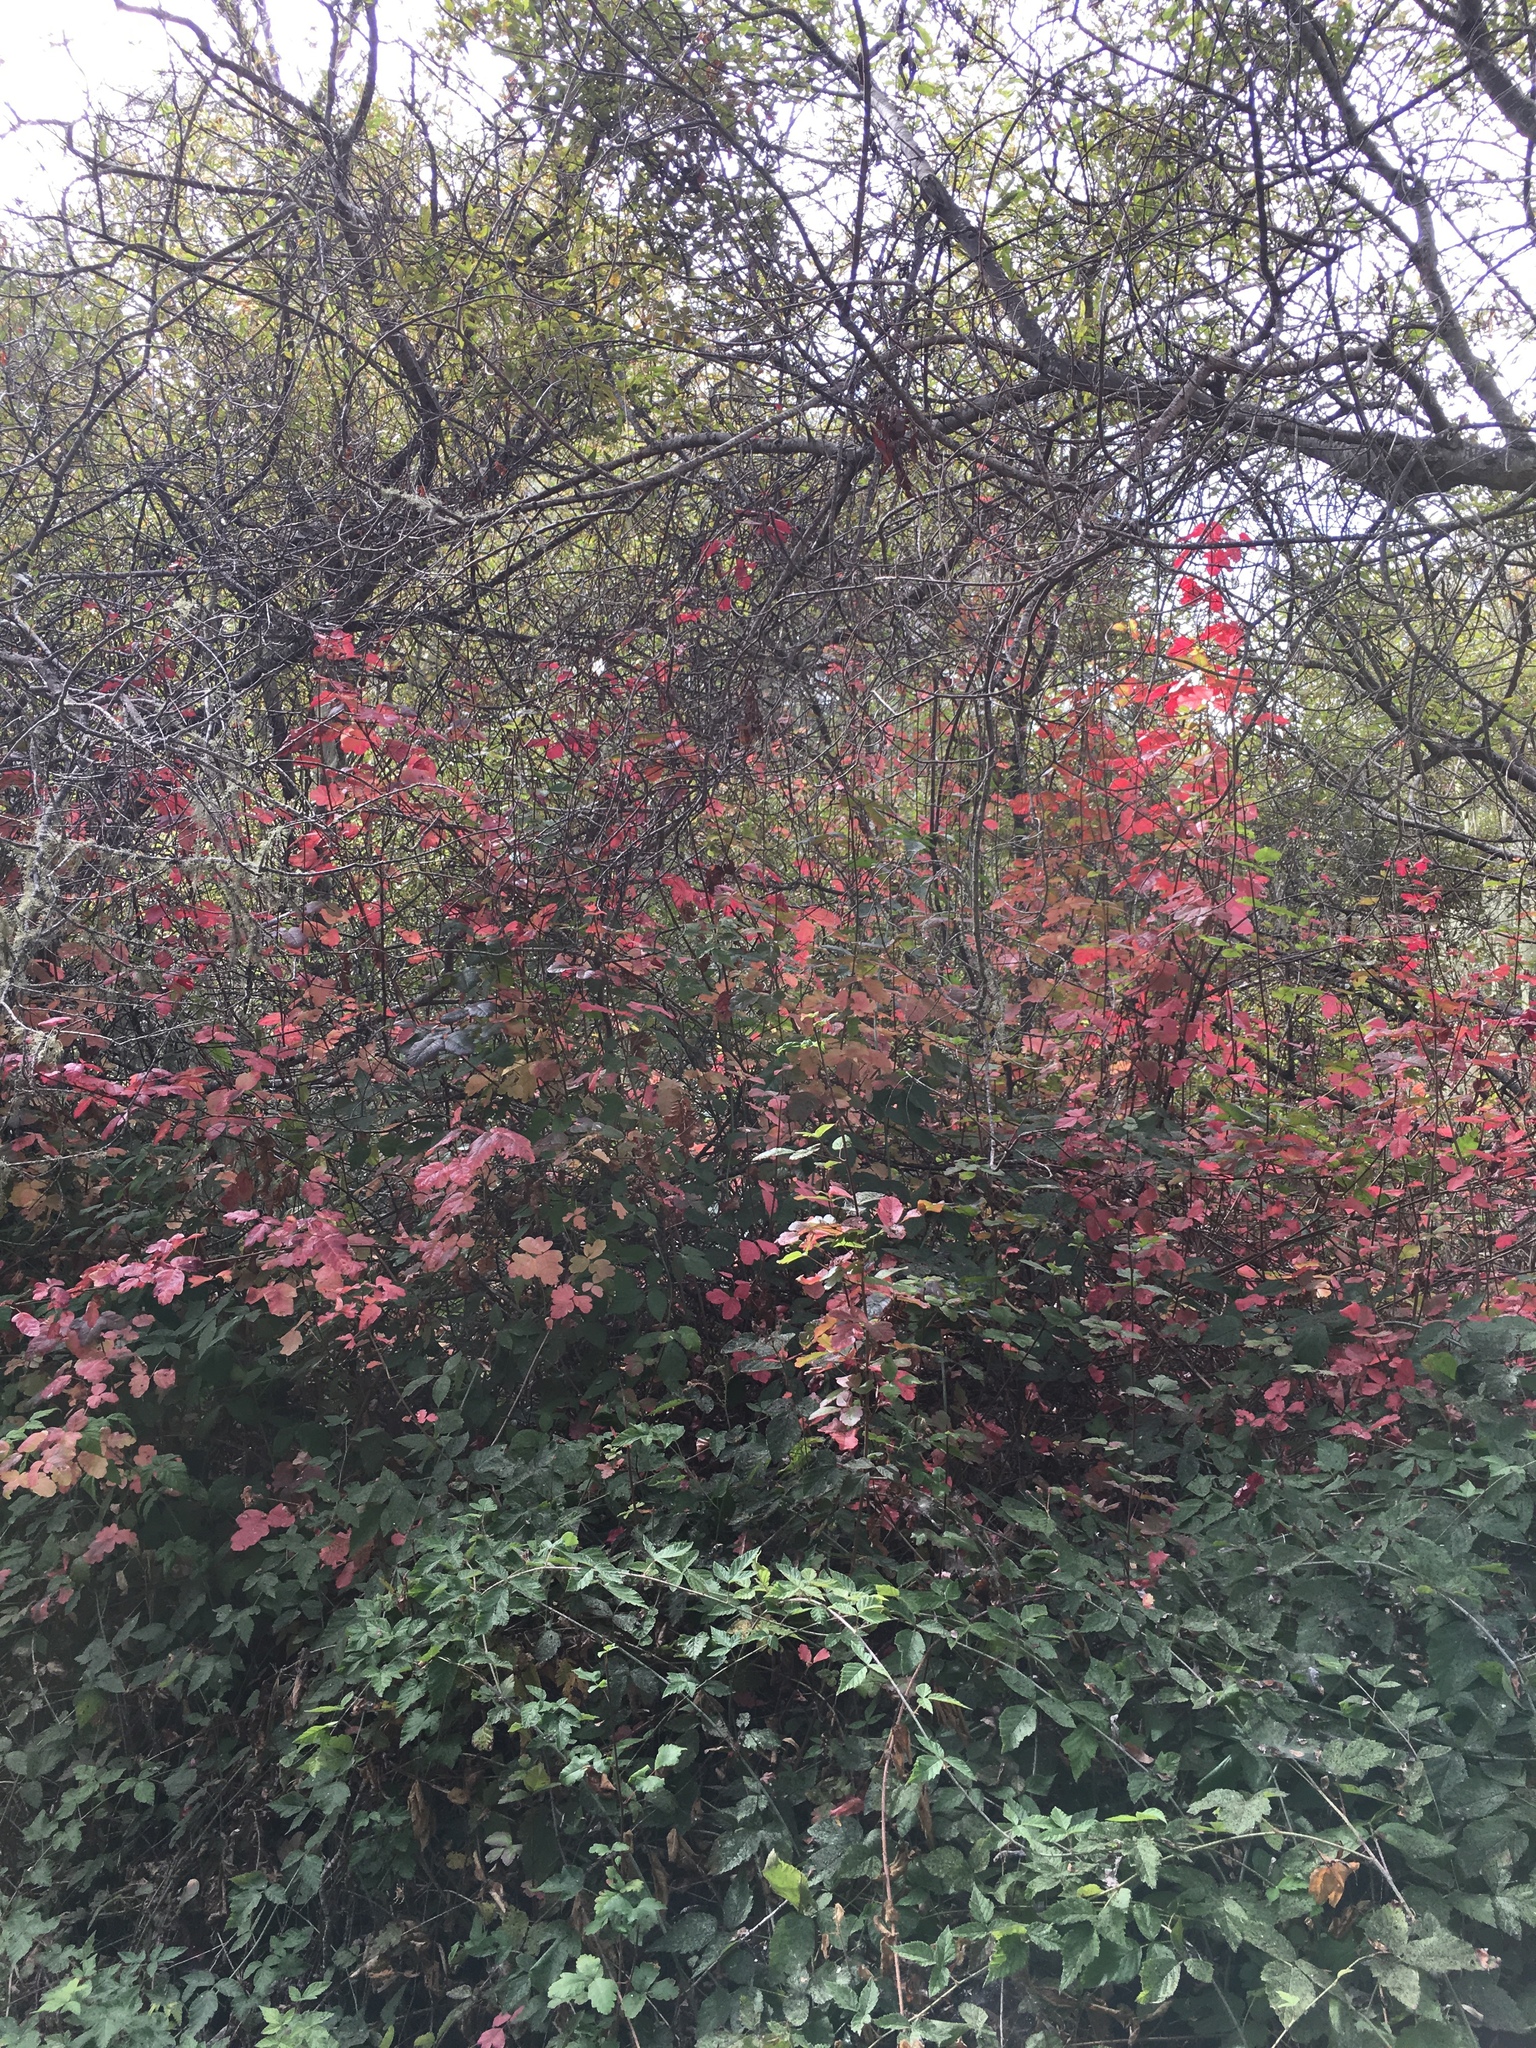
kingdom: Plantae
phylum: Tracheophyta
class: Magnoliopsida
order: Sapindales
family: Anacardiaceae
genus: Toxicodendron
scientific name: Toxicodendron diversilobum
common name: Pacific poison-oak
